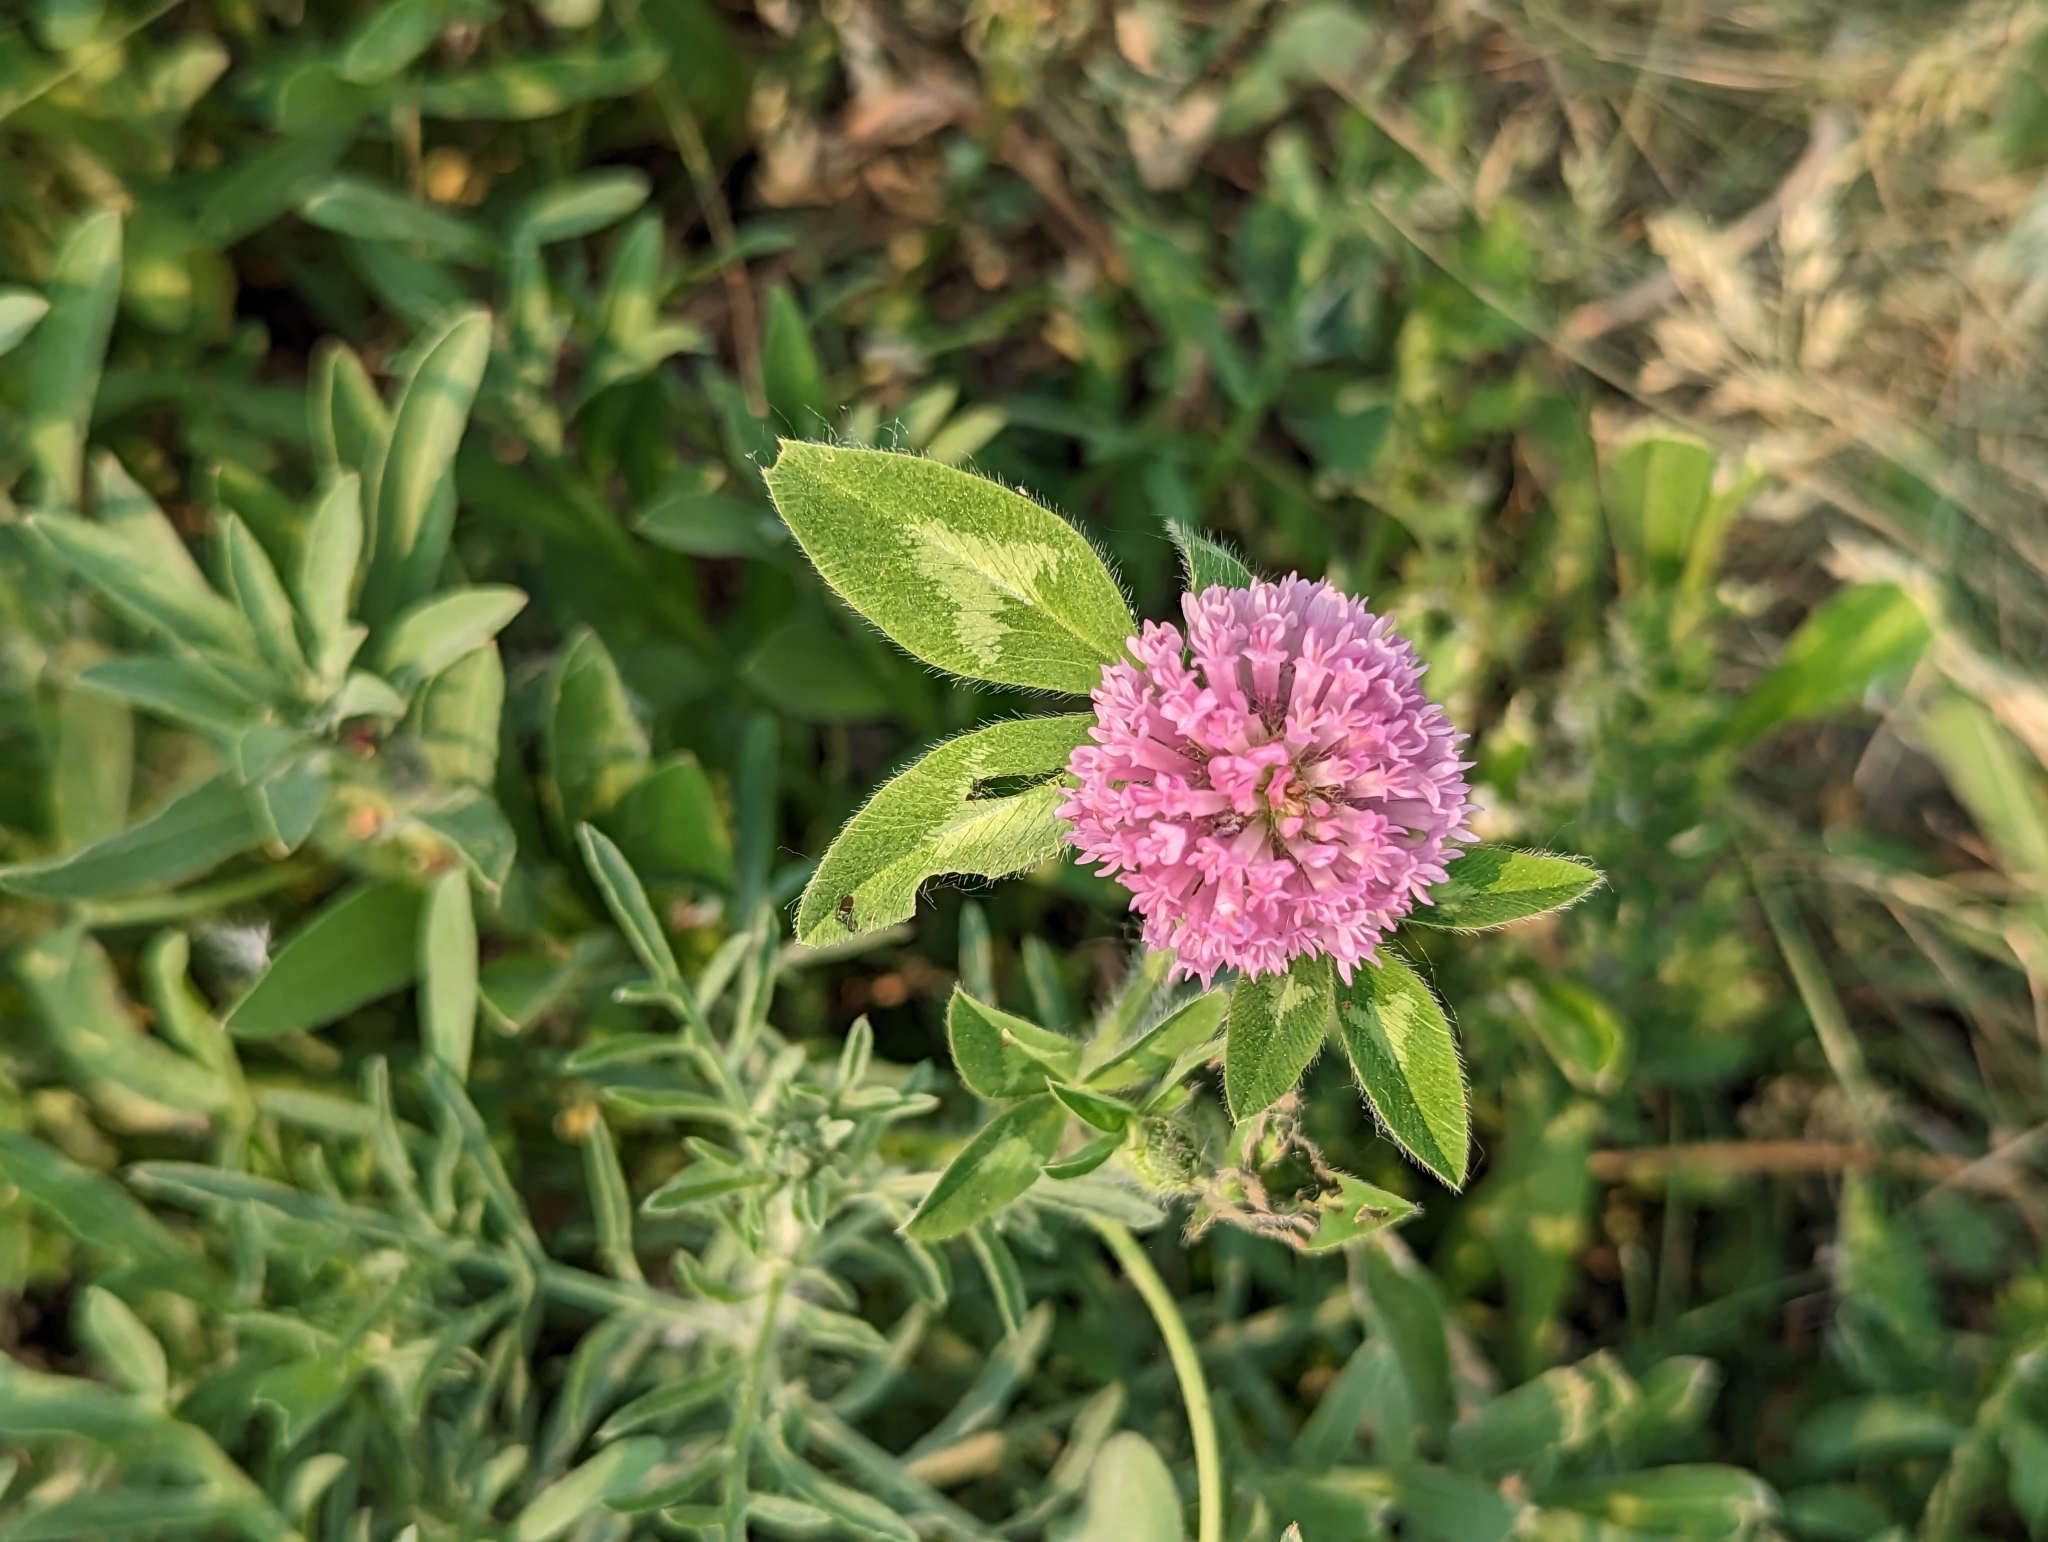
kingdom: Plantae
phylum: Tracheophyta
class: Magnoliopsida
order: Fabales
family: Fabaceae
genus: Trifolium
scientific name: Trifolium pratense
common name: Red clover
